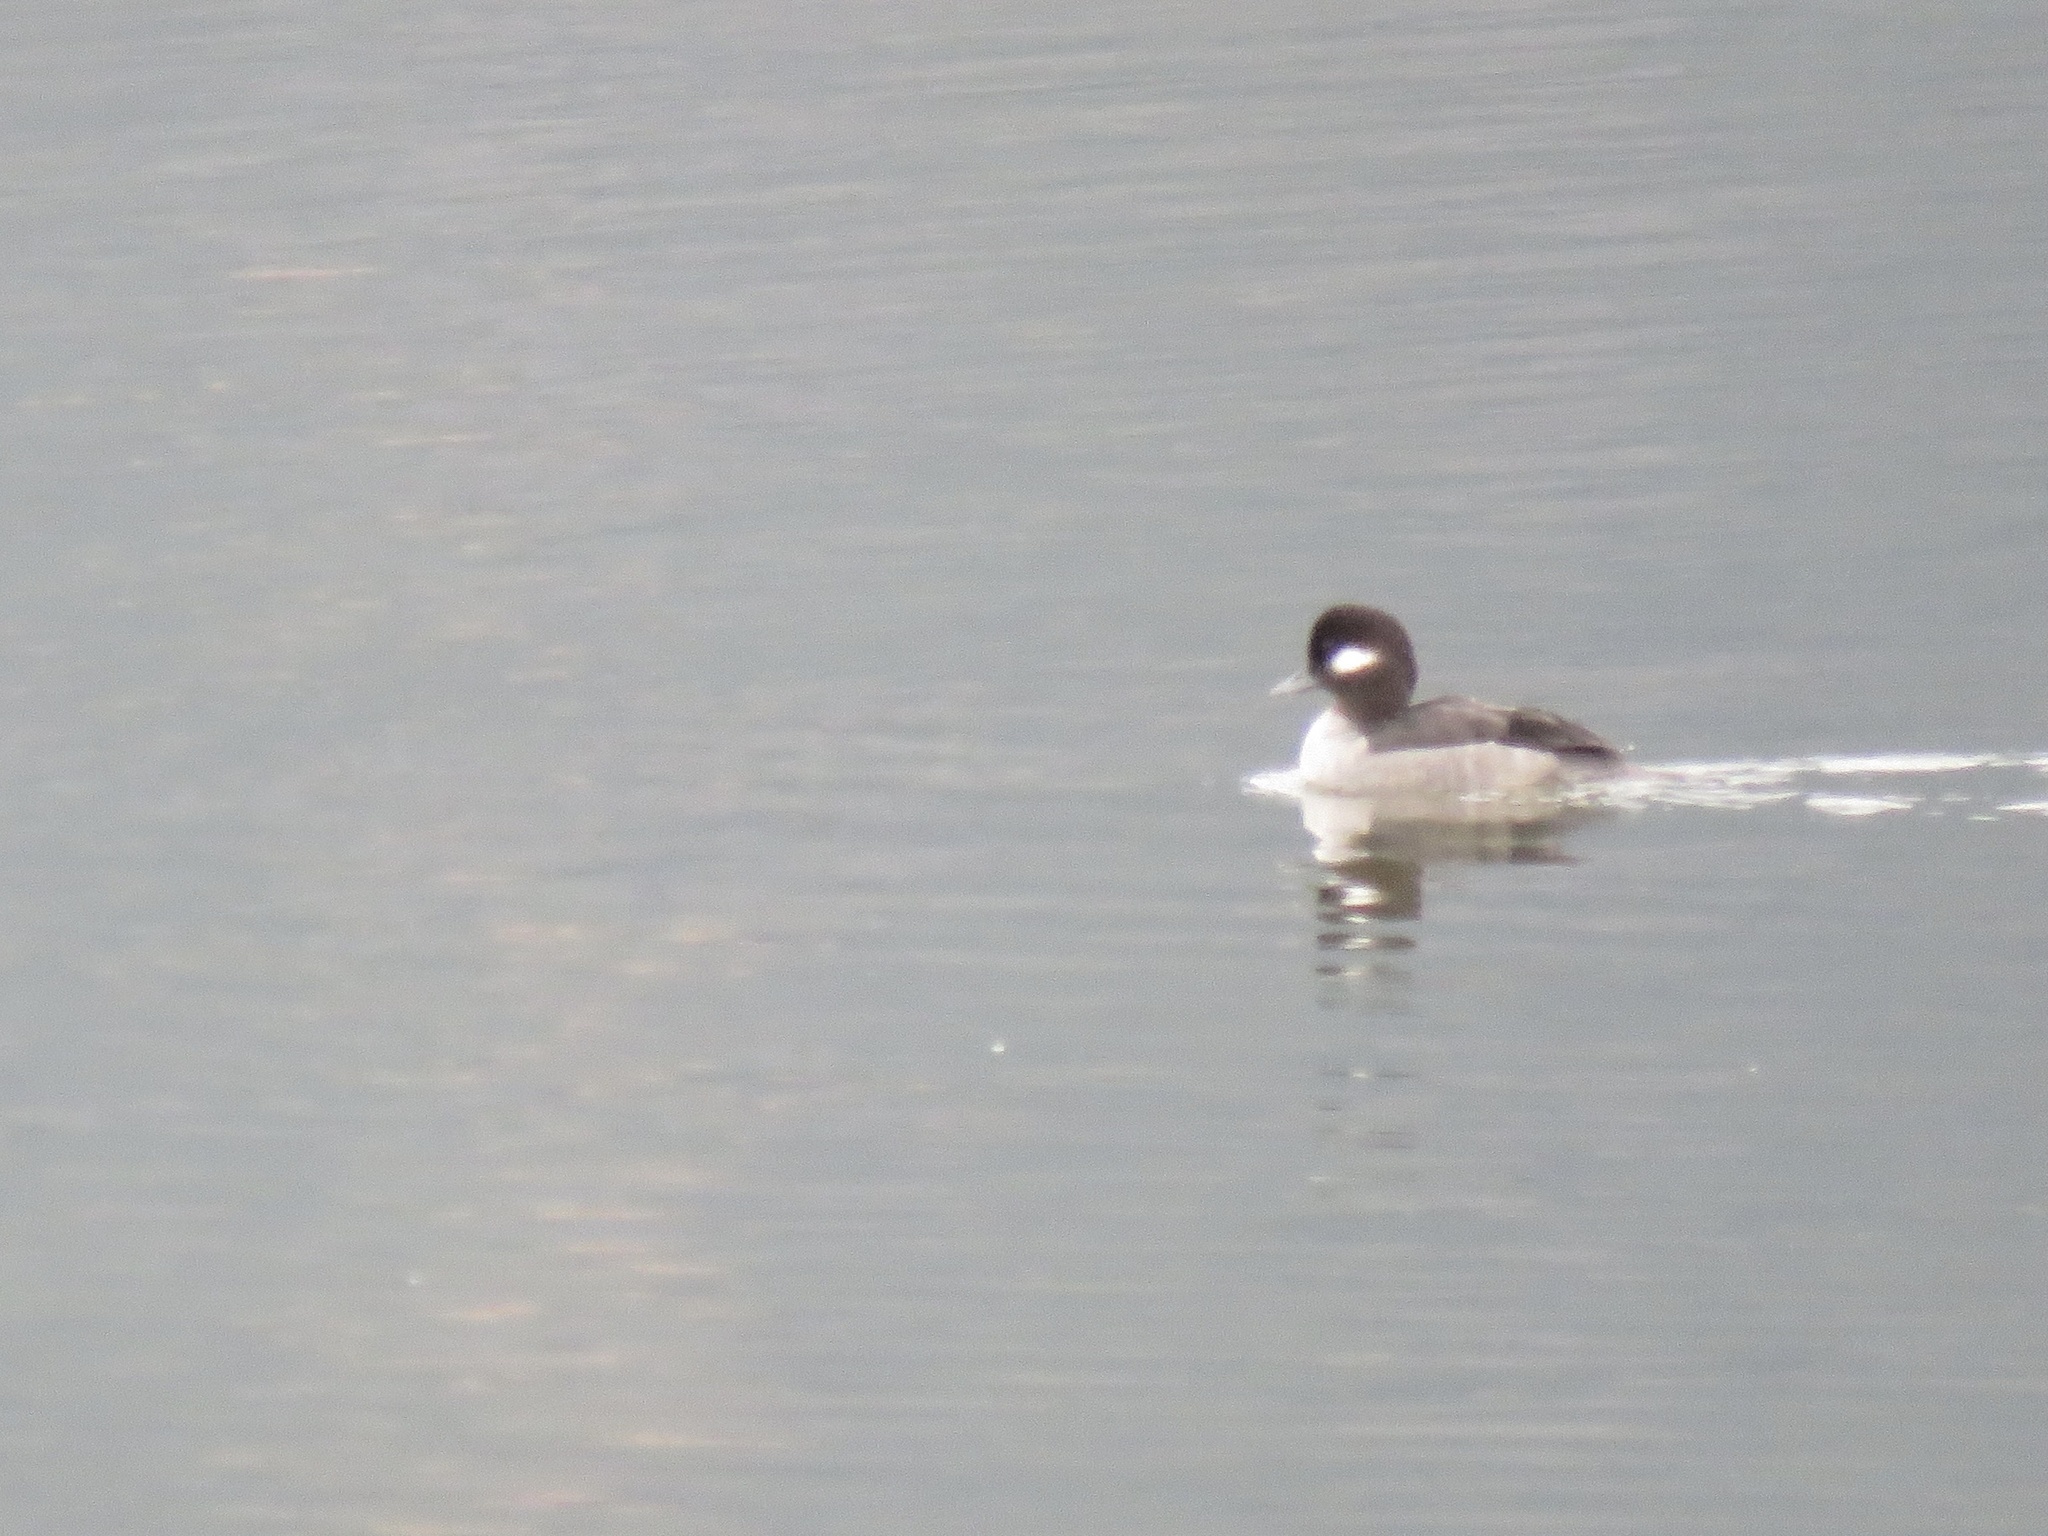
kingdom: Animalia
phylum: Chordata
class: Aves
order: Anseriformes
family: Anatidae
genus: Bucephala
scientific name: Bucephala albeola
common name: Bufflehead
